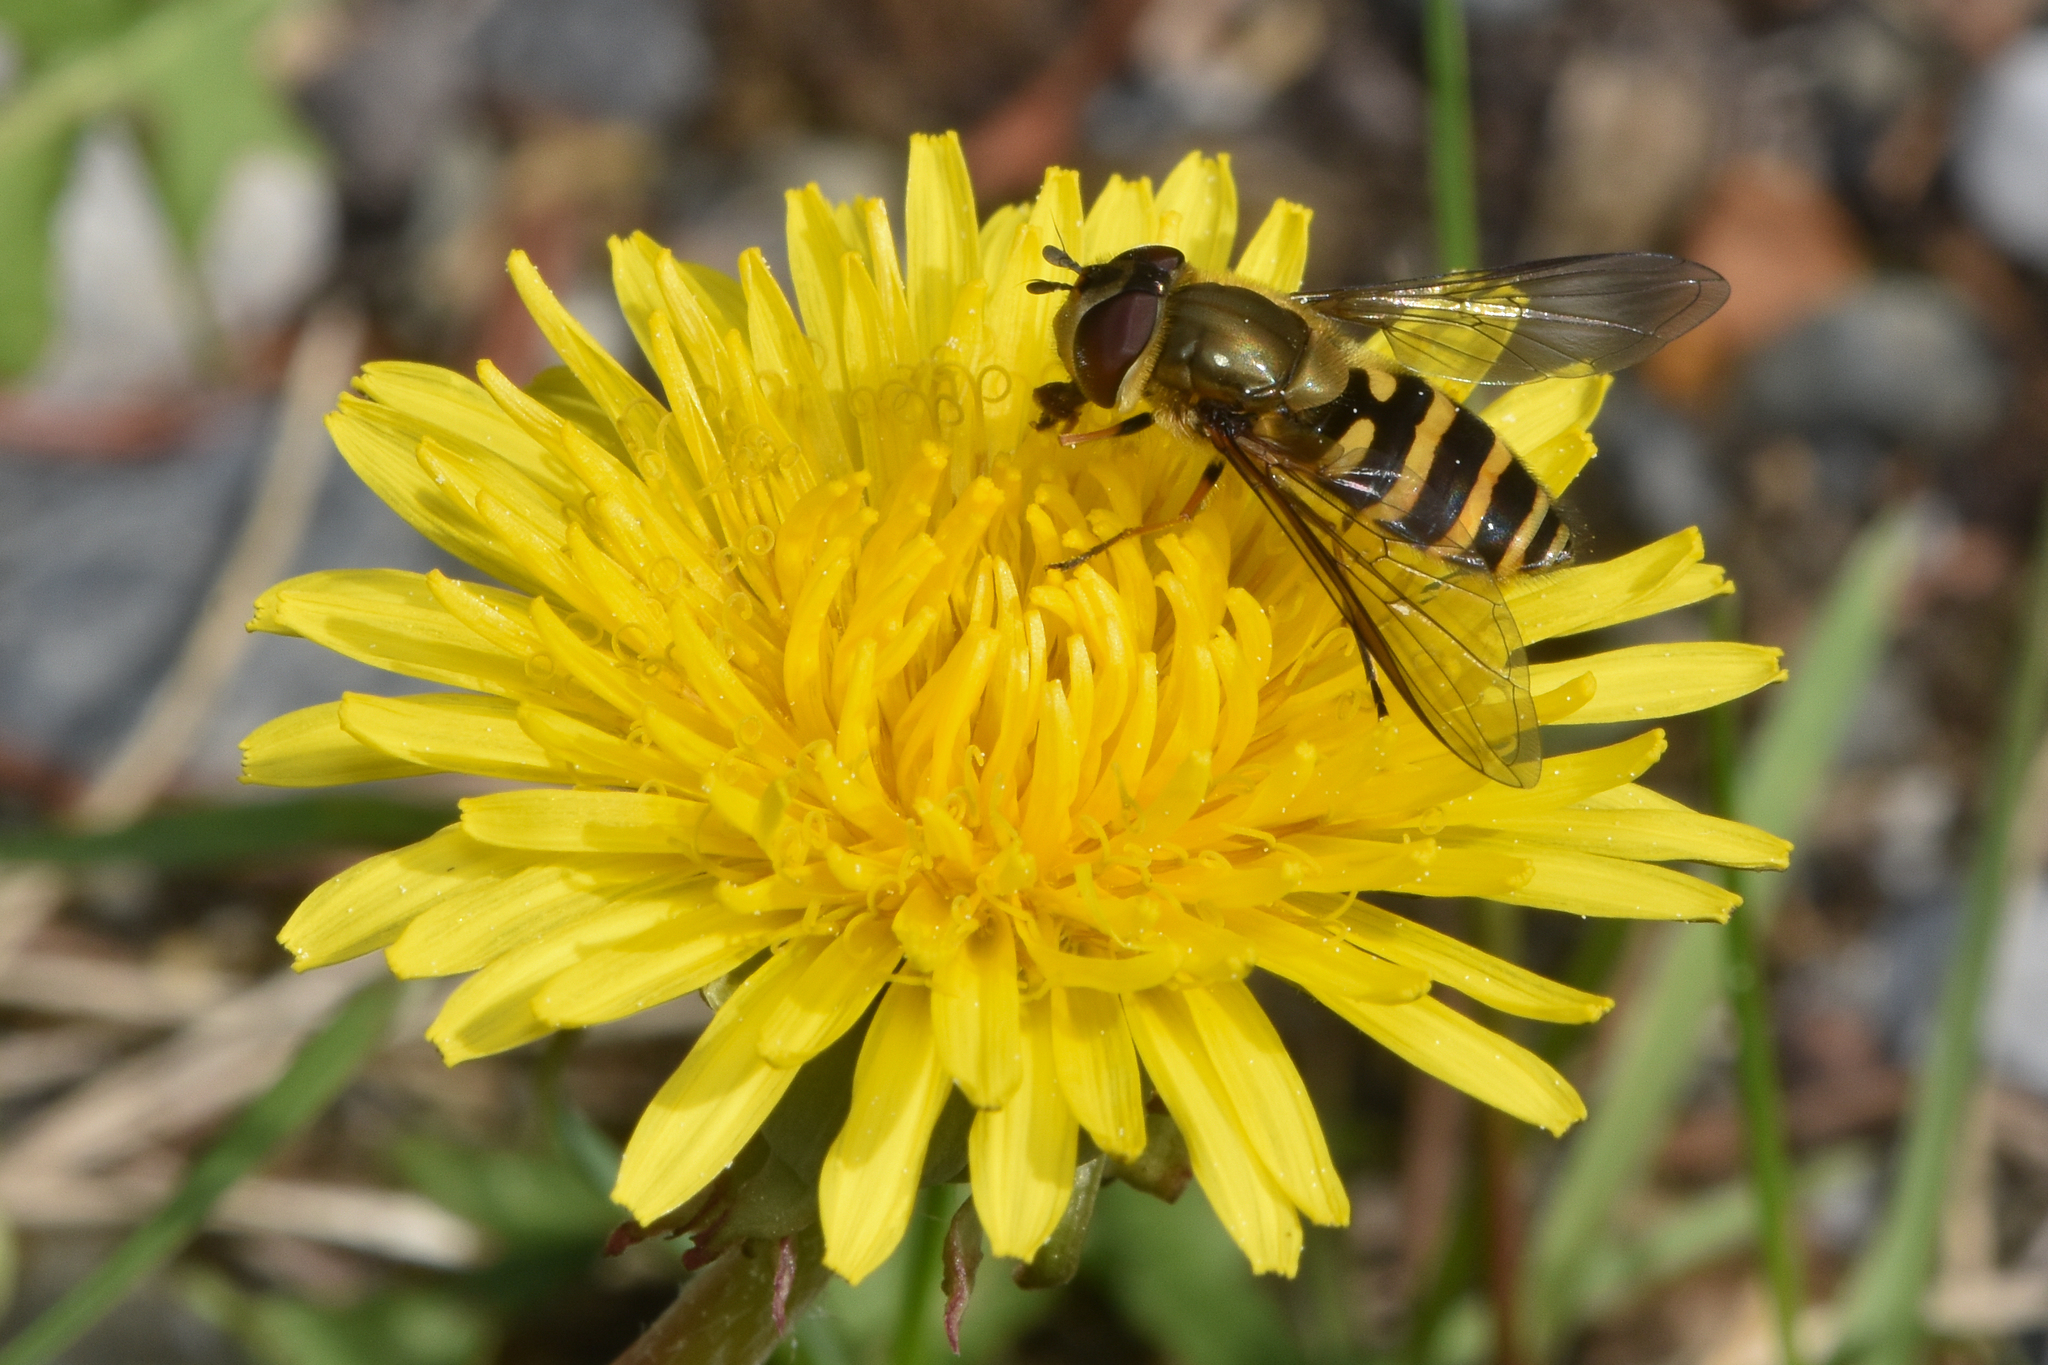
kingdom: Animalia
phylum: Arthropoda
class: Insecta
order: Diptera
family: Syrphidae
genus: Syrphus
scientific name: Syrphus torvus
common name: Hairy-eyed flower fly
